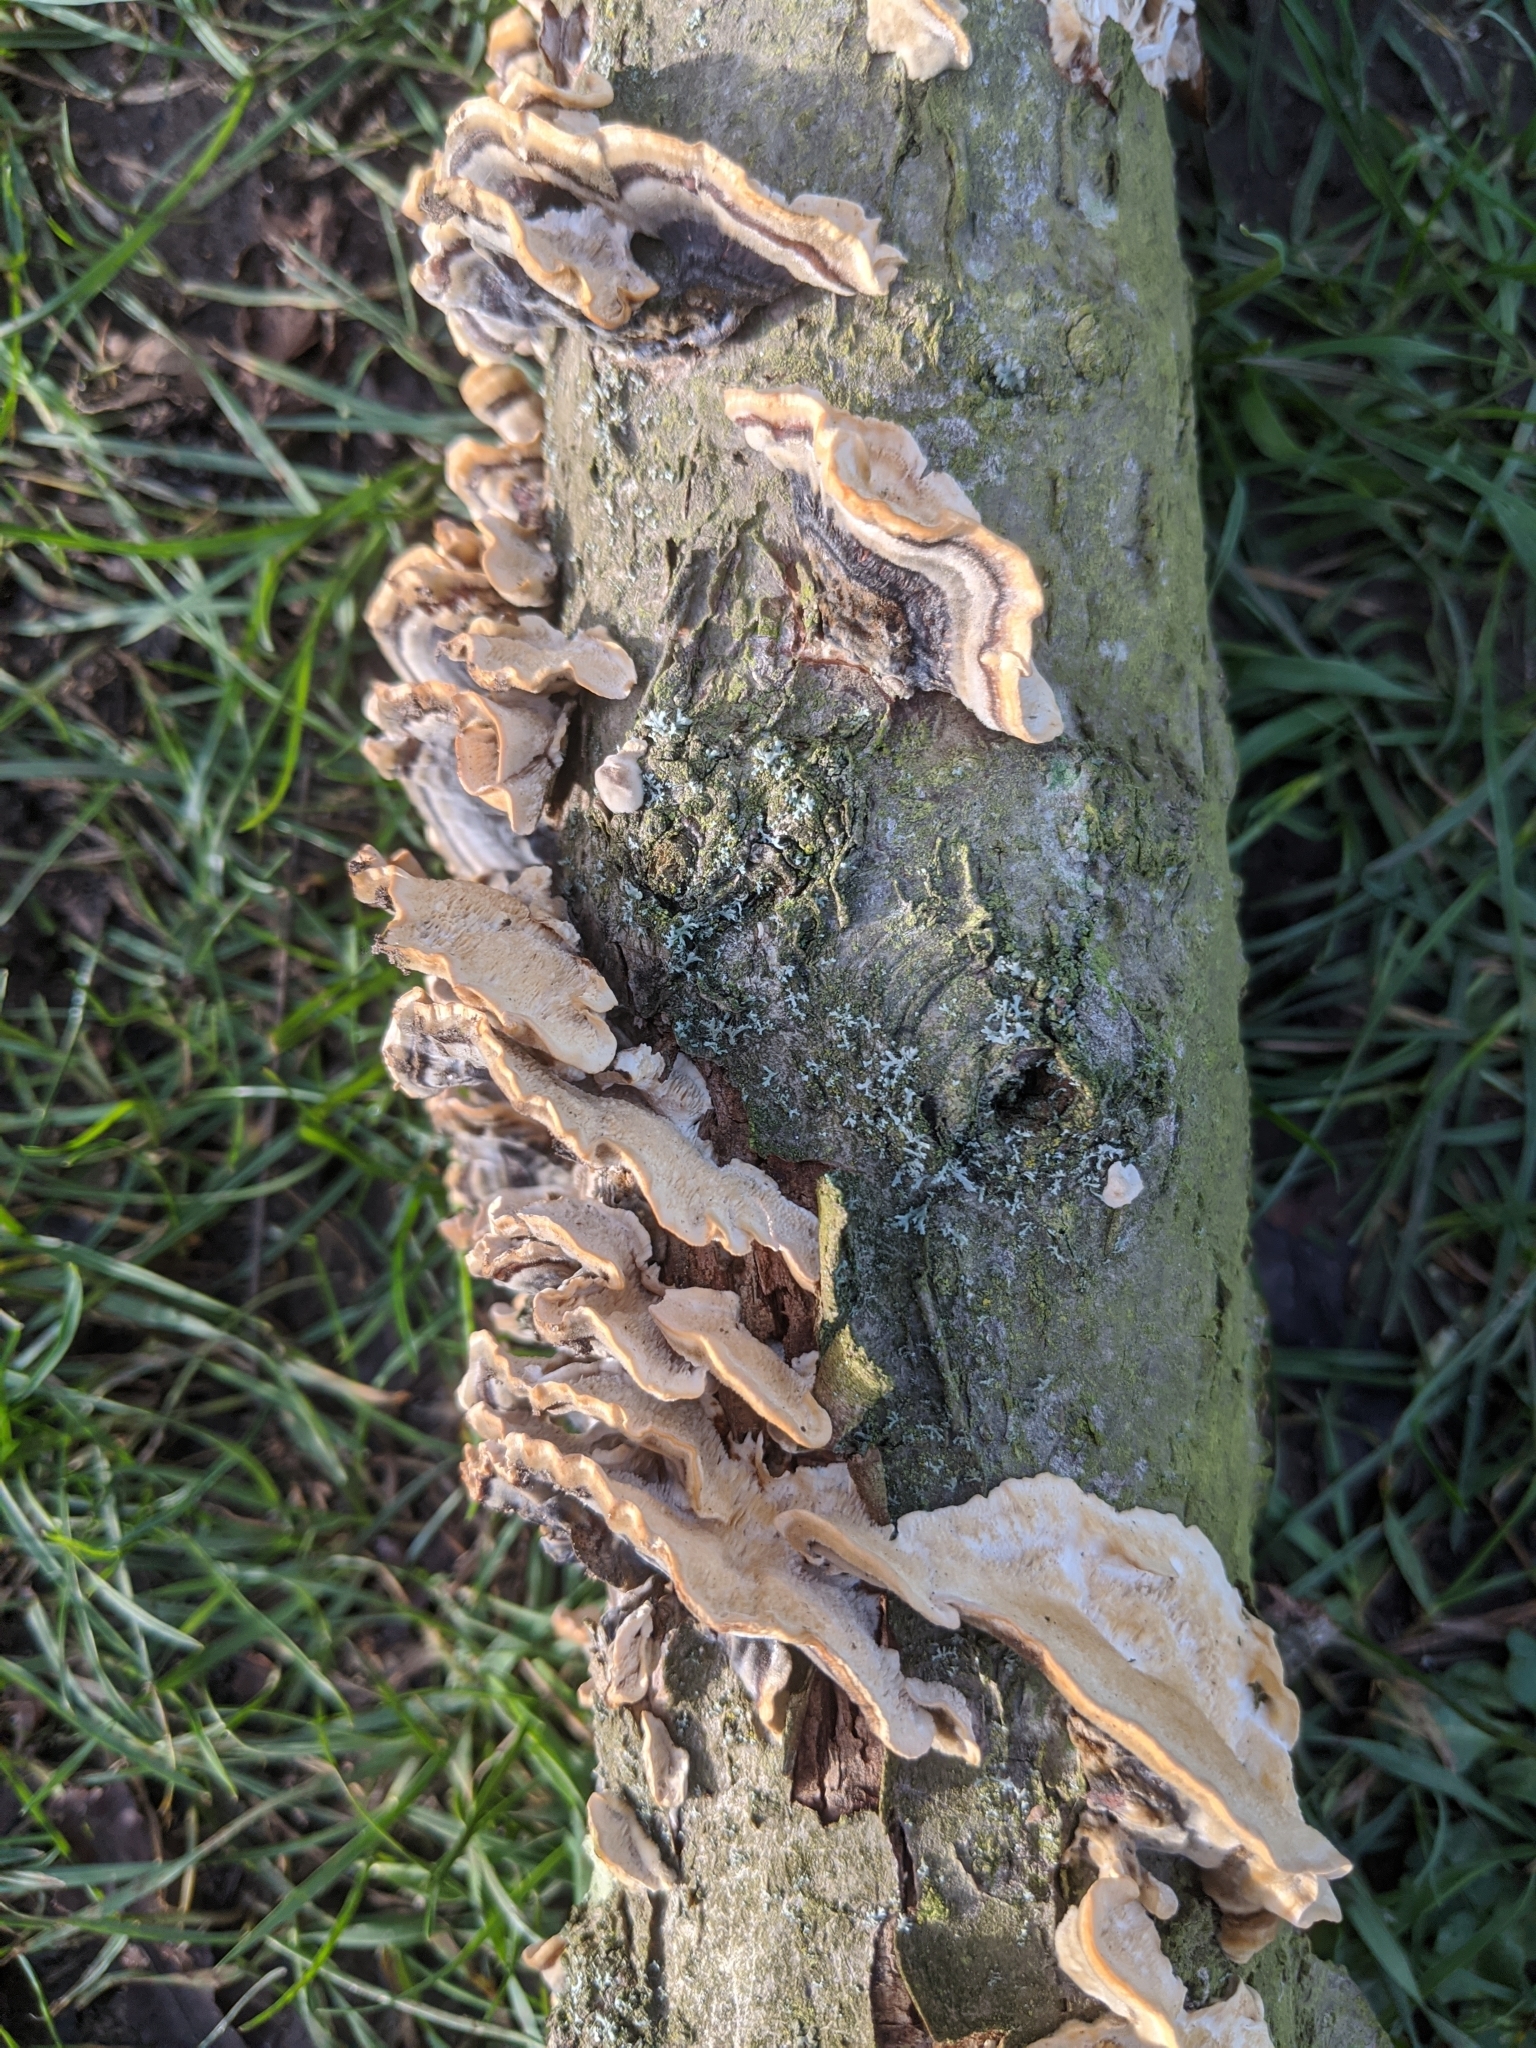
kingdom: Fungi
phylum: Basidiomycota
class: Agaricomycetes
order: Polyporales
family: Polyporaceae
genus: Trametes
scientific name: Trametes versicolor
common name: Turkeytail
